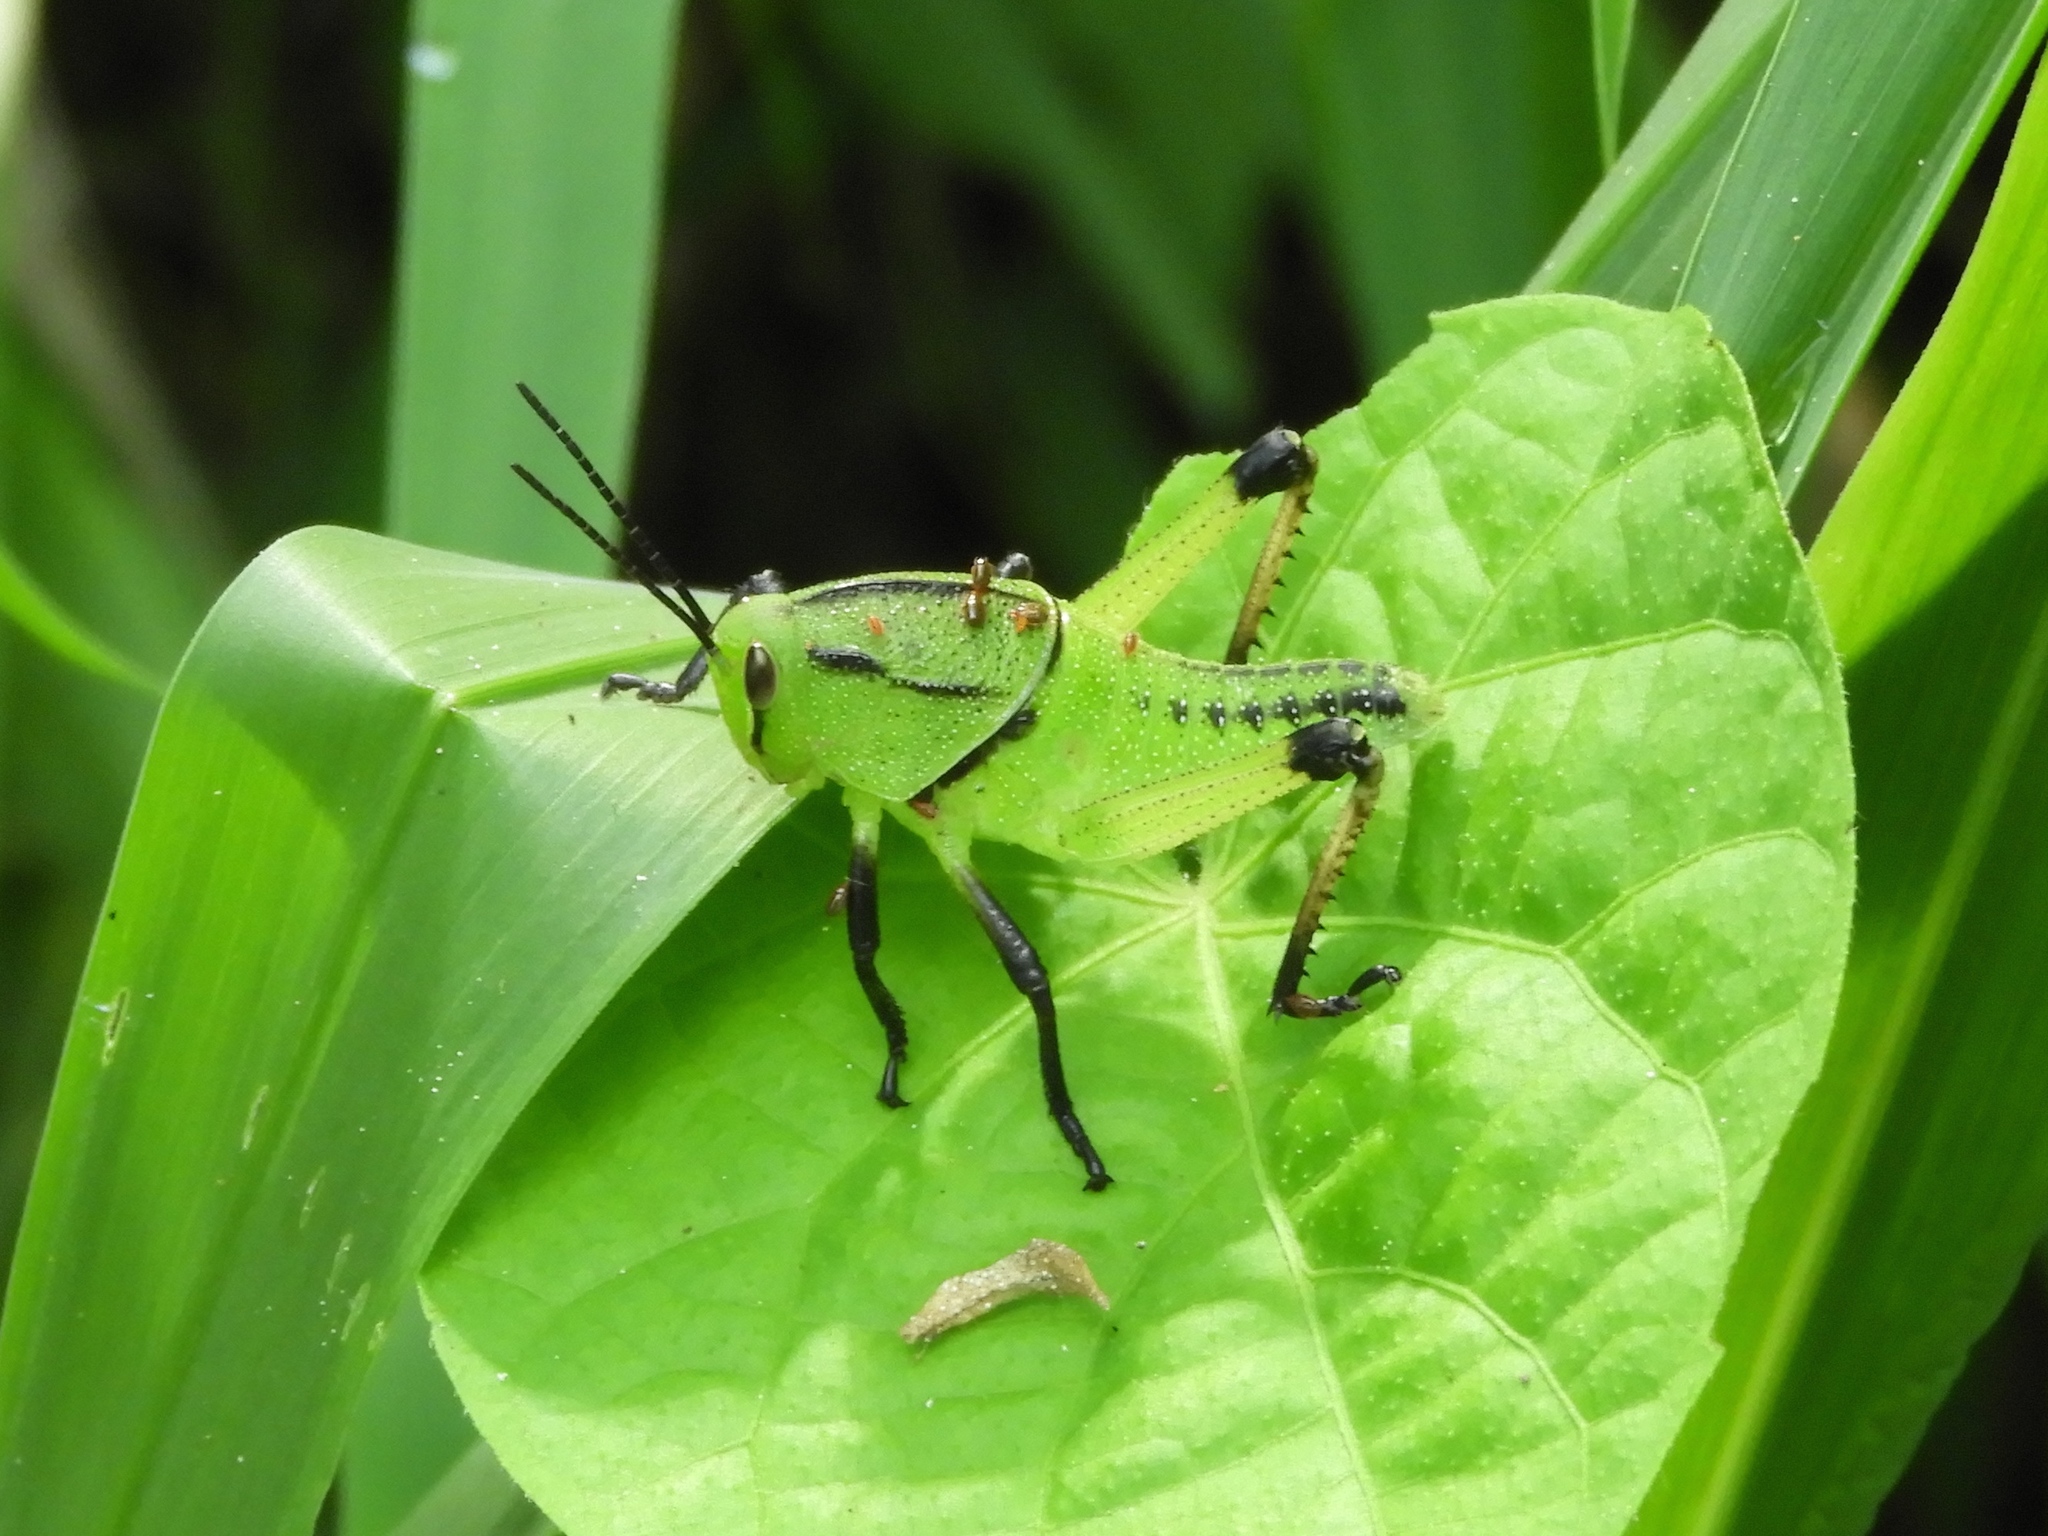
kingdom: Animalia
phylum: Arthropoda
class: Insecta
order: Orthoptera
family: Romaleidae
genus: Brachystola
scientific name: Brachystola
